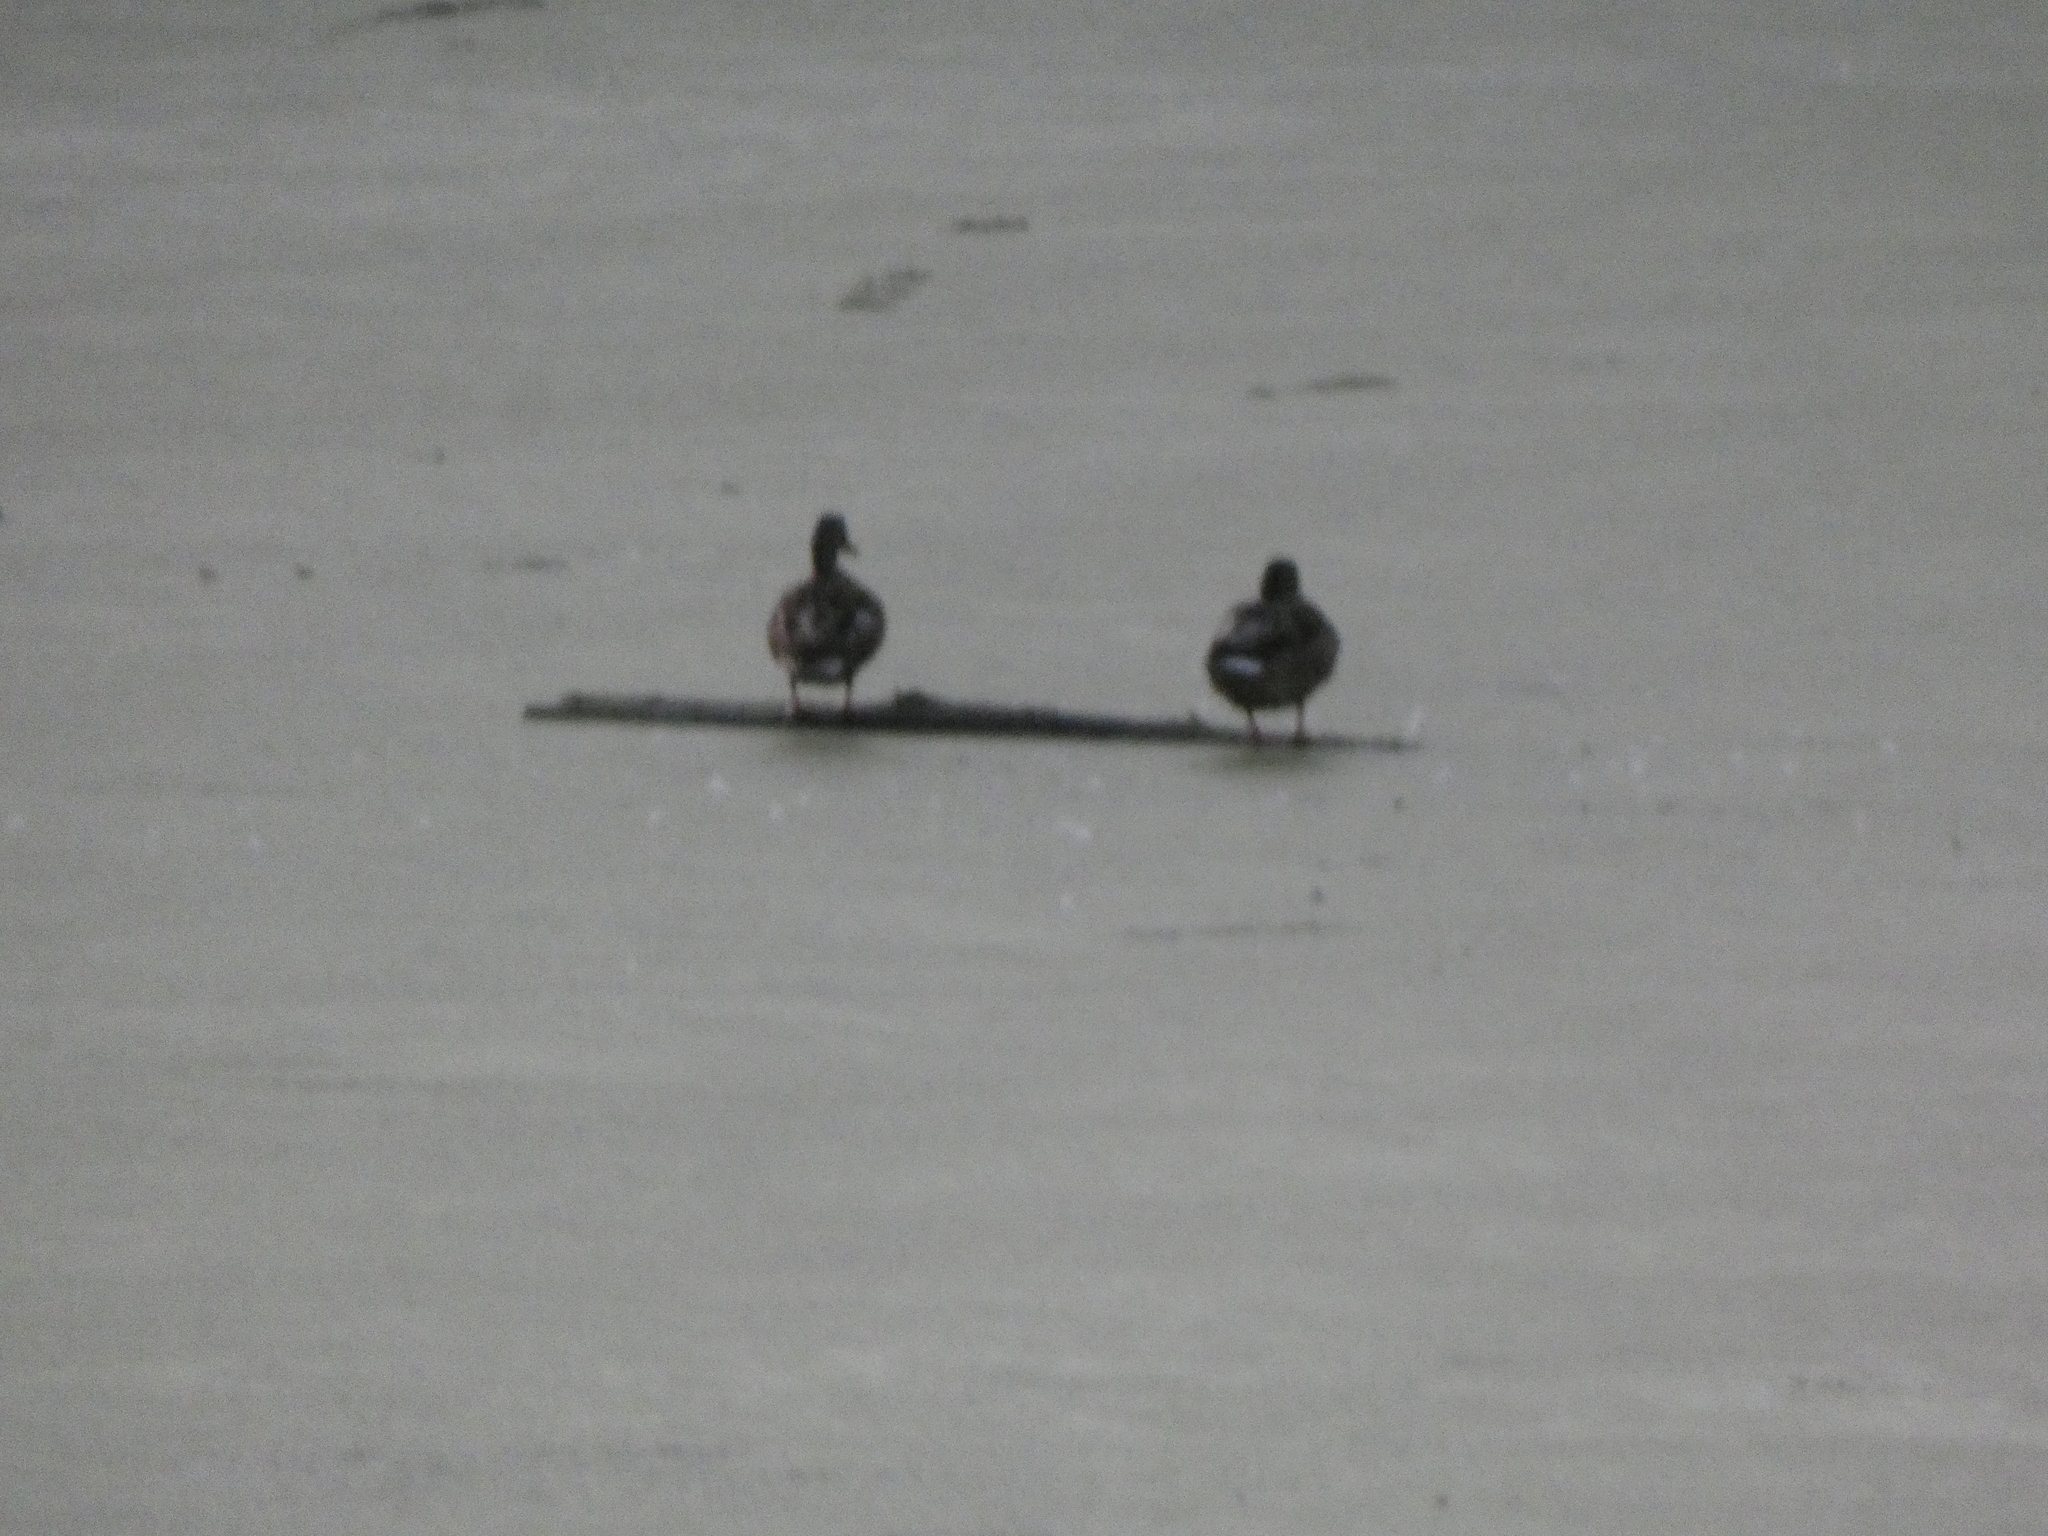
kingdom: Animalia
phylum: Chordata
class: Aves
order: Anseriformes
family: Anatidae
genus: Anas
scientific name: Anas platyrhynchos
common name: Mallard
